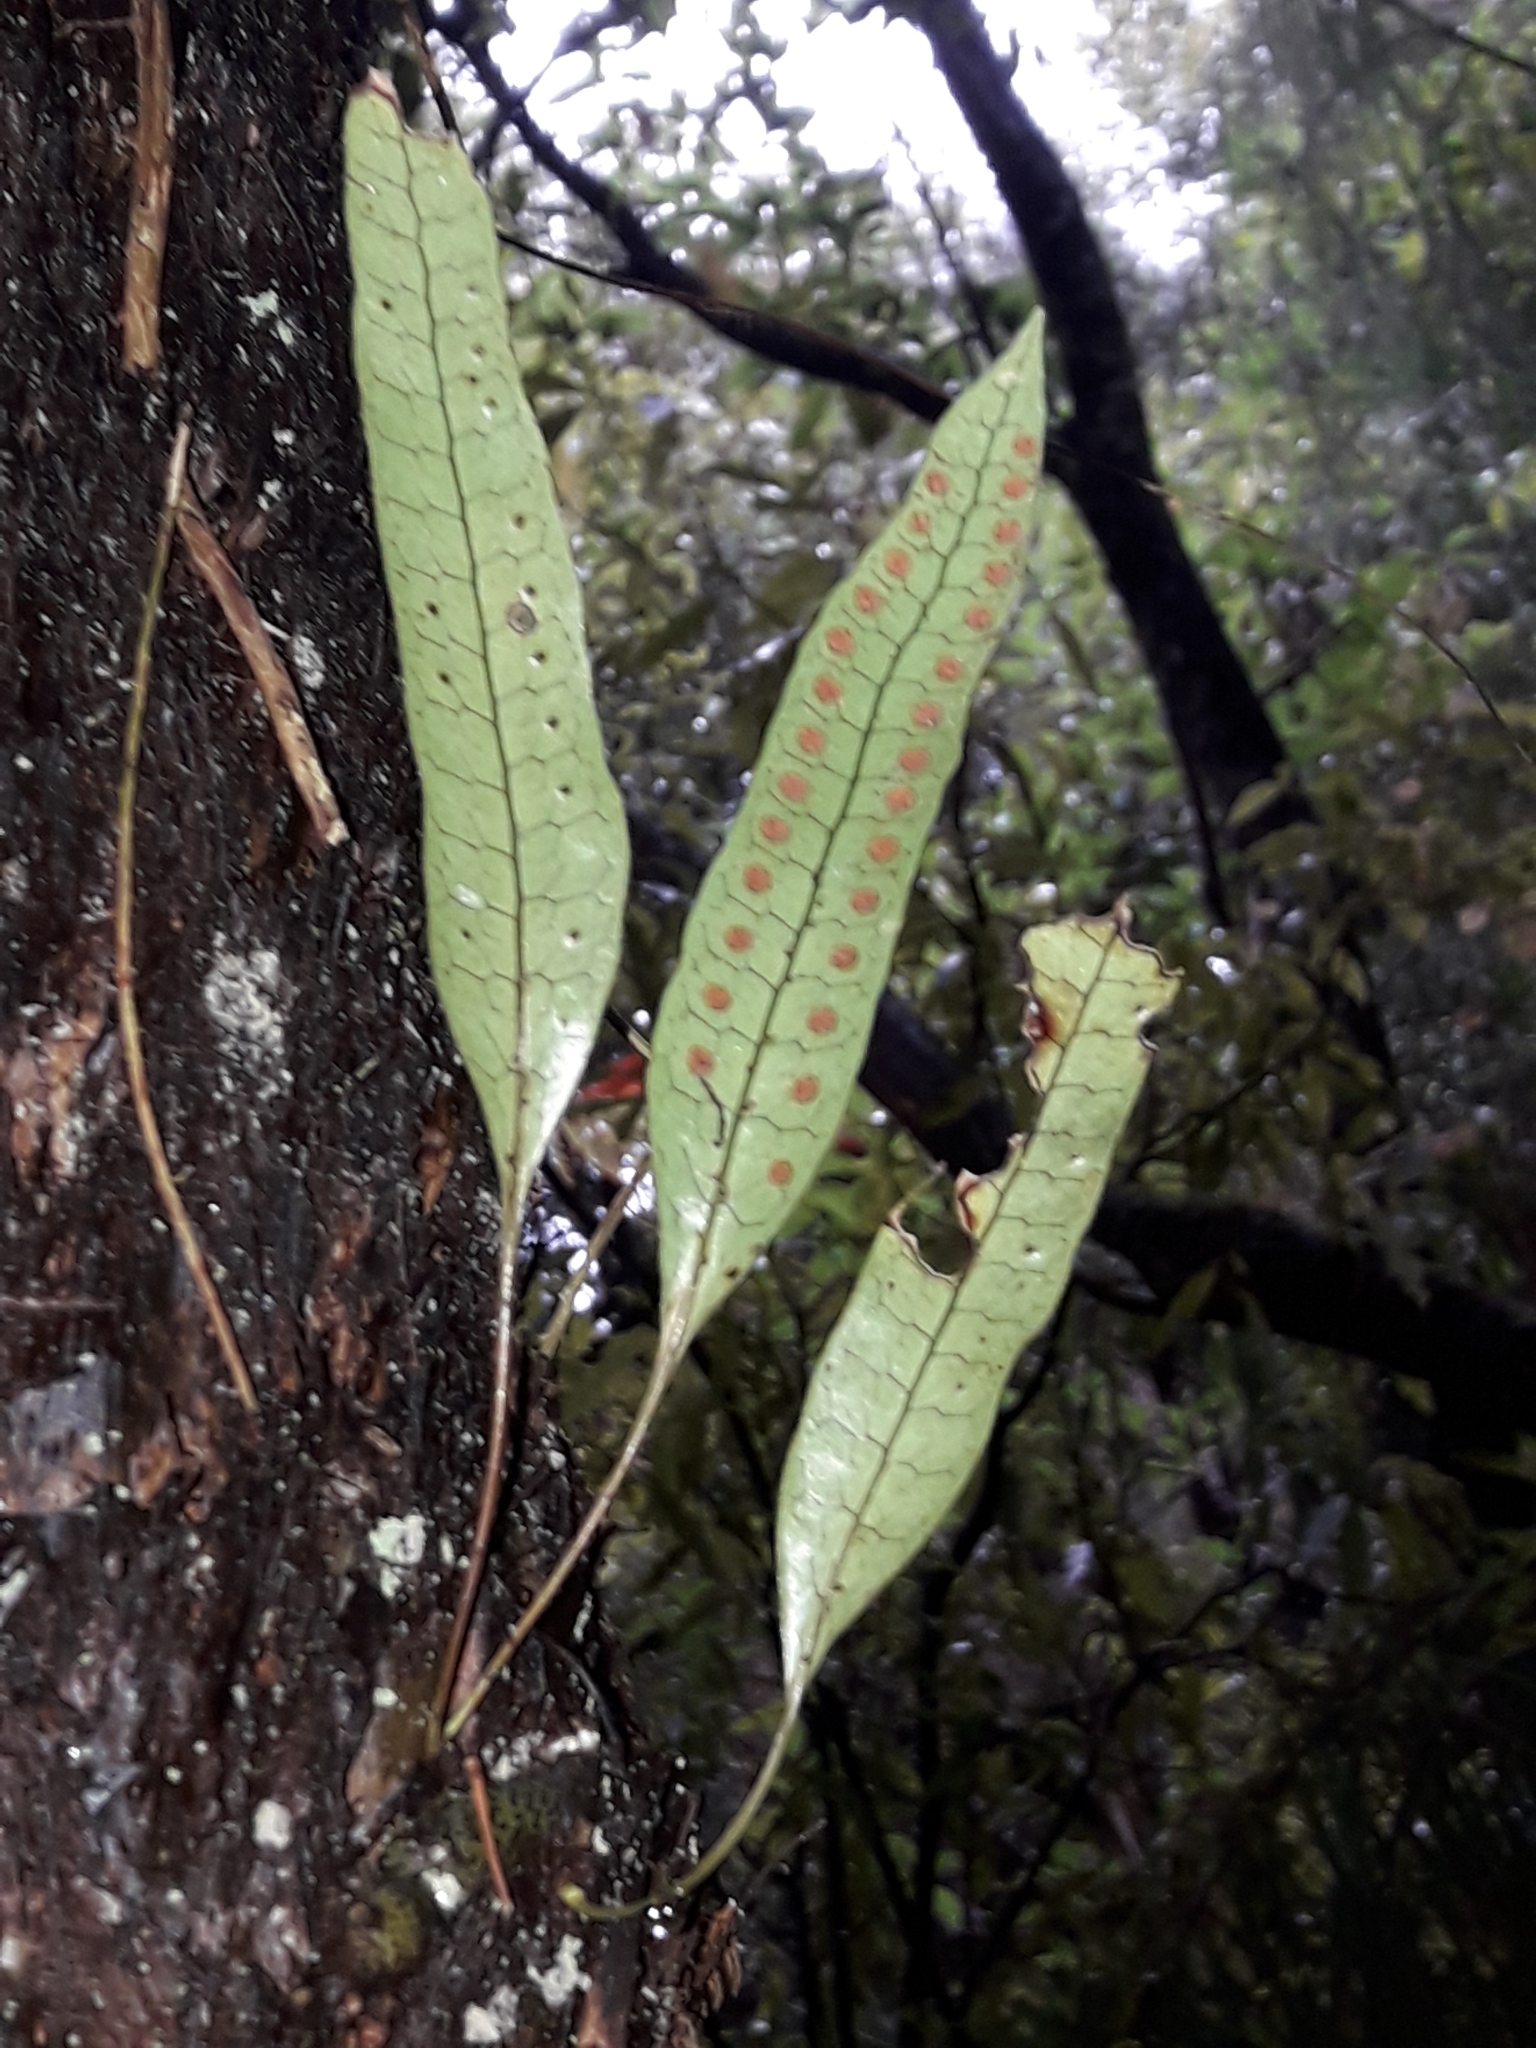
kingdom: Plantae
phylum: Tracheophyta
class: Polypodiopsida
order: Polypodiales
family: Polypodiaceae
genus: Lecanopteris
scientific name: Lecanopteris pustulata
